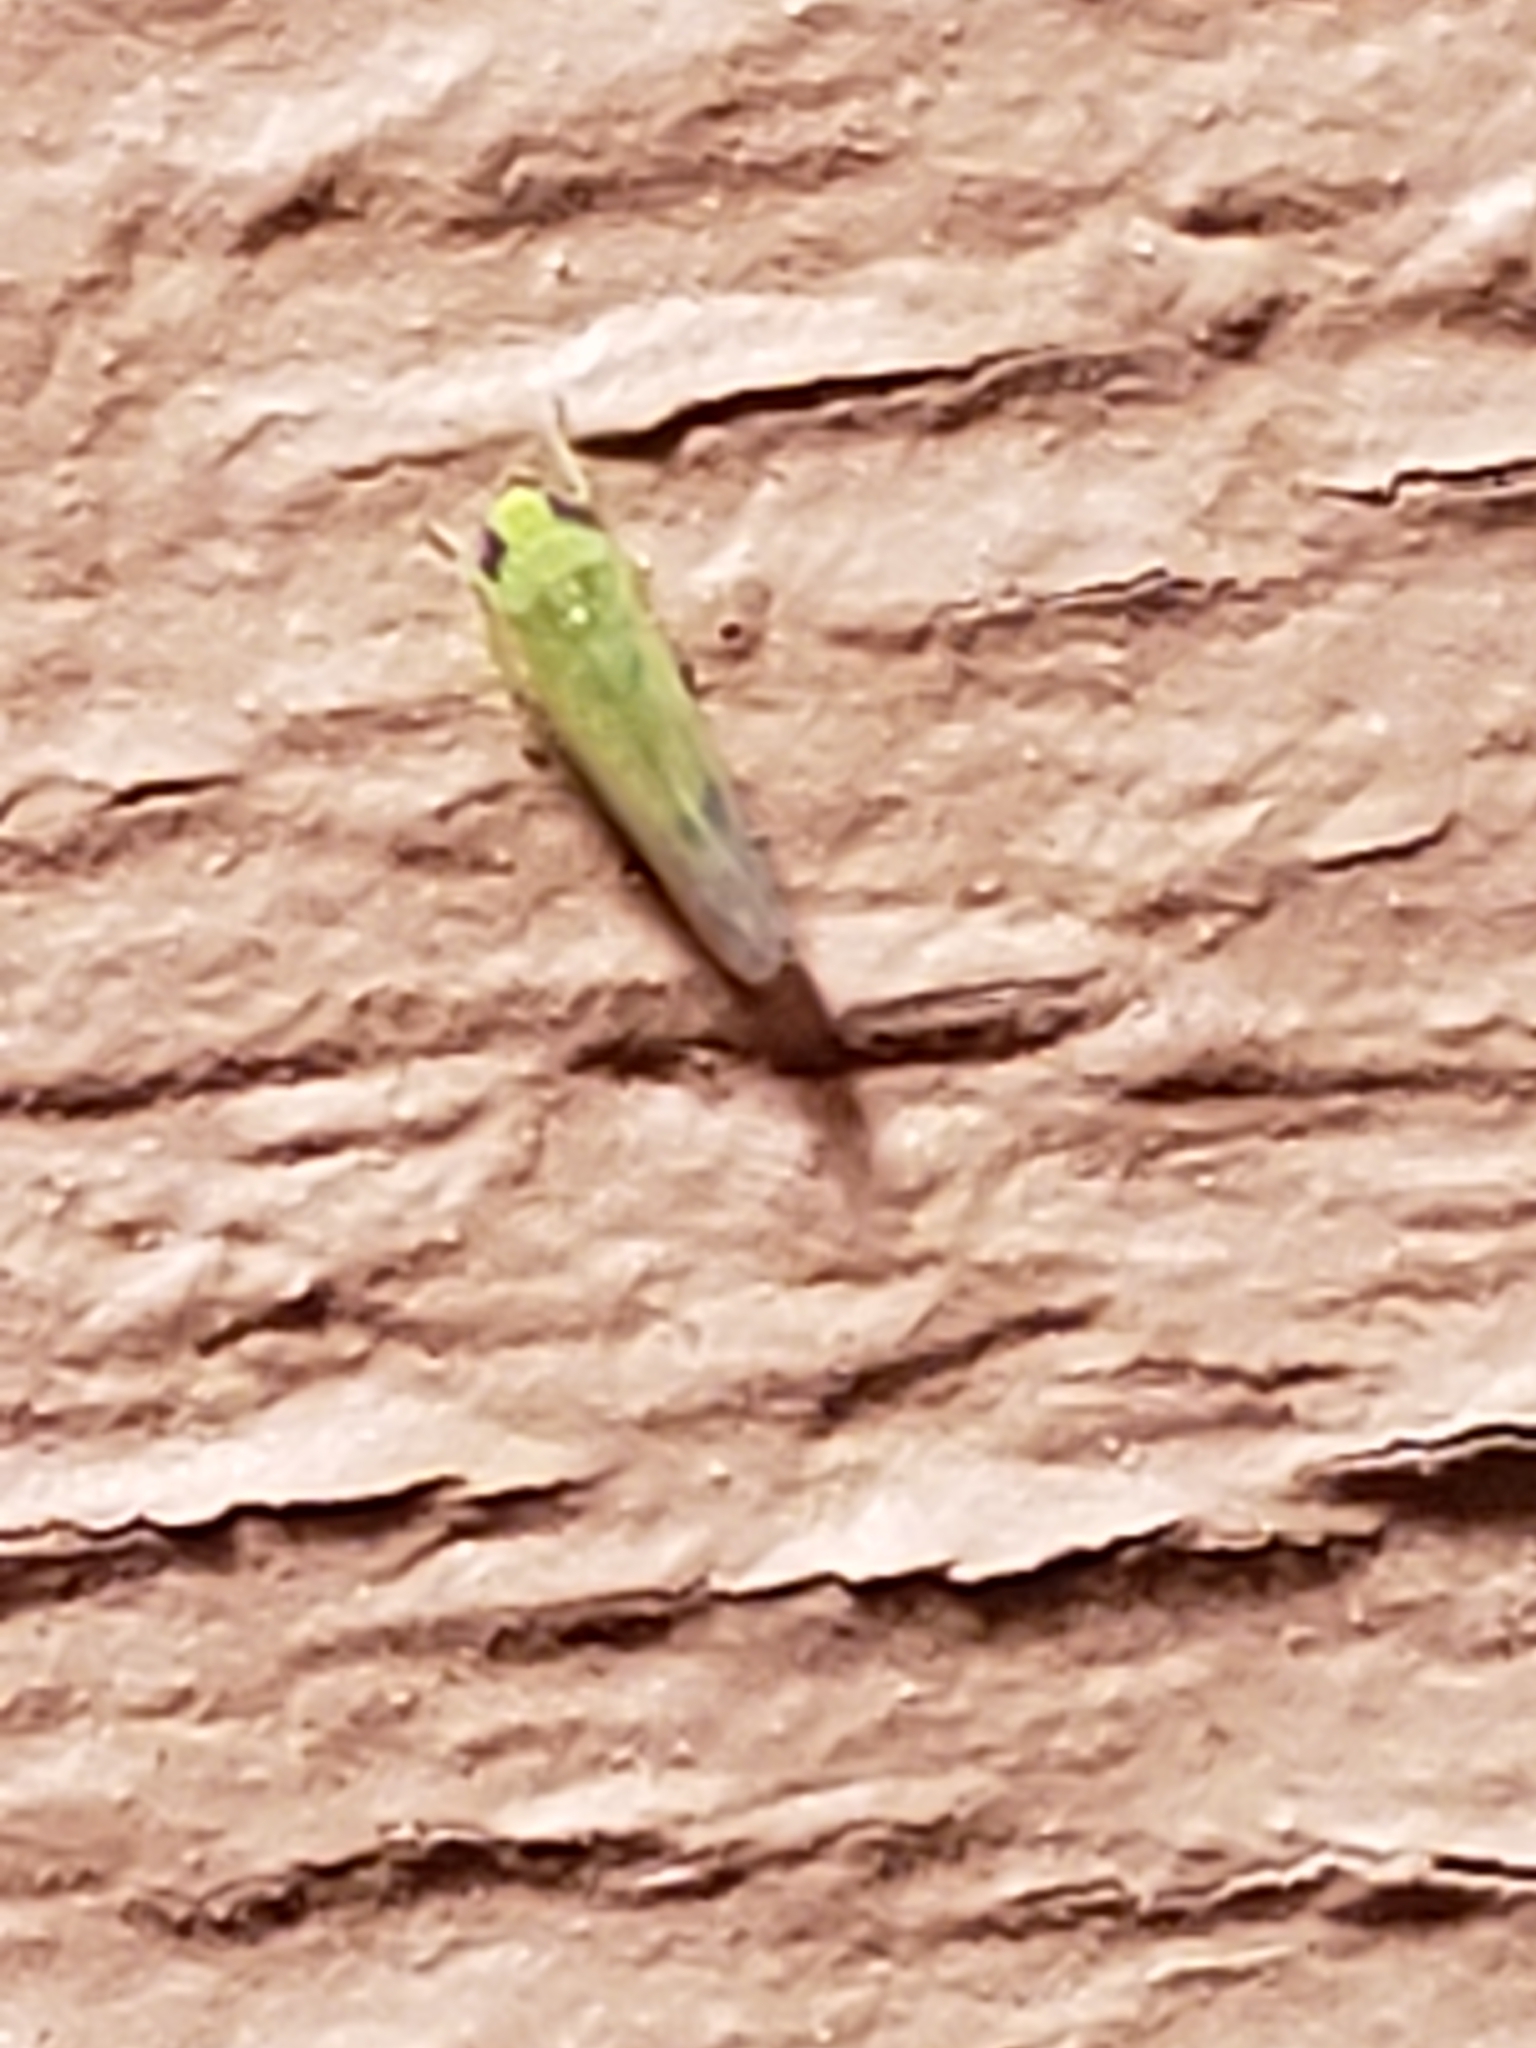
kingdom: Animalia
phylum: Arthropoda
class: Insecta
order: Hemiptera
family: Cicadellidae
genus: Empoasca
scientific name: Empoasca fabae
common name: Potato leafhopper
